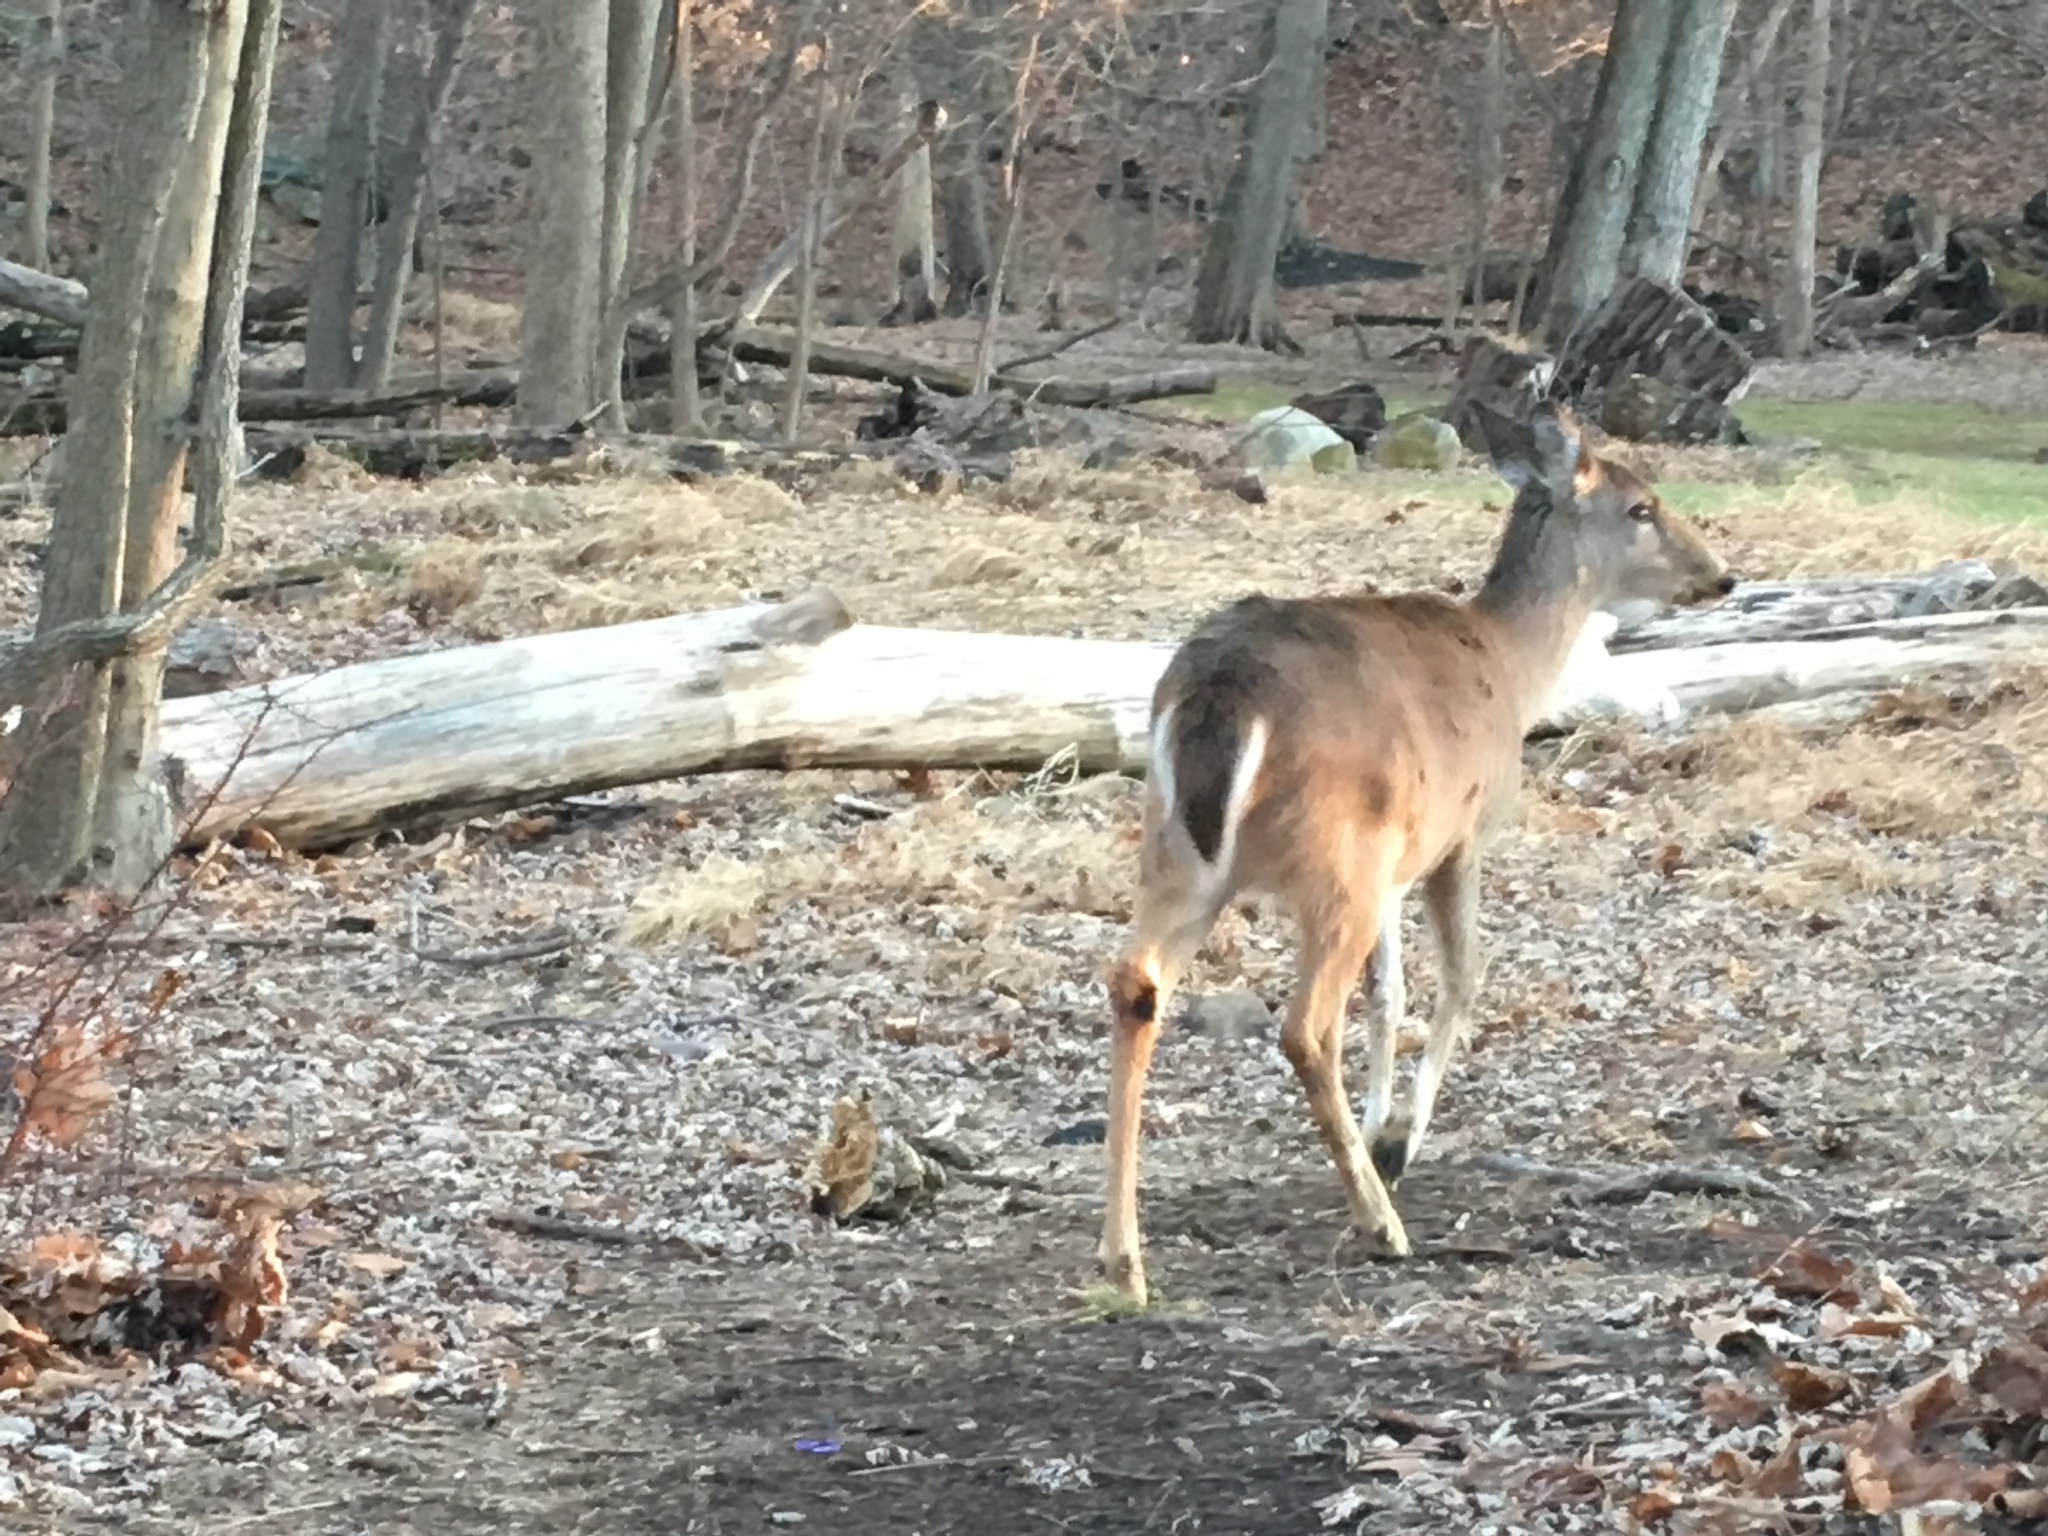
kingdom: Animalia
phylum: Chordata
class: Mammalia
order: Artiodactyla
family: Cervidae
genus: Odocoileus
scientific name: Odocoileus virginianus
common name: White-tailed deer
